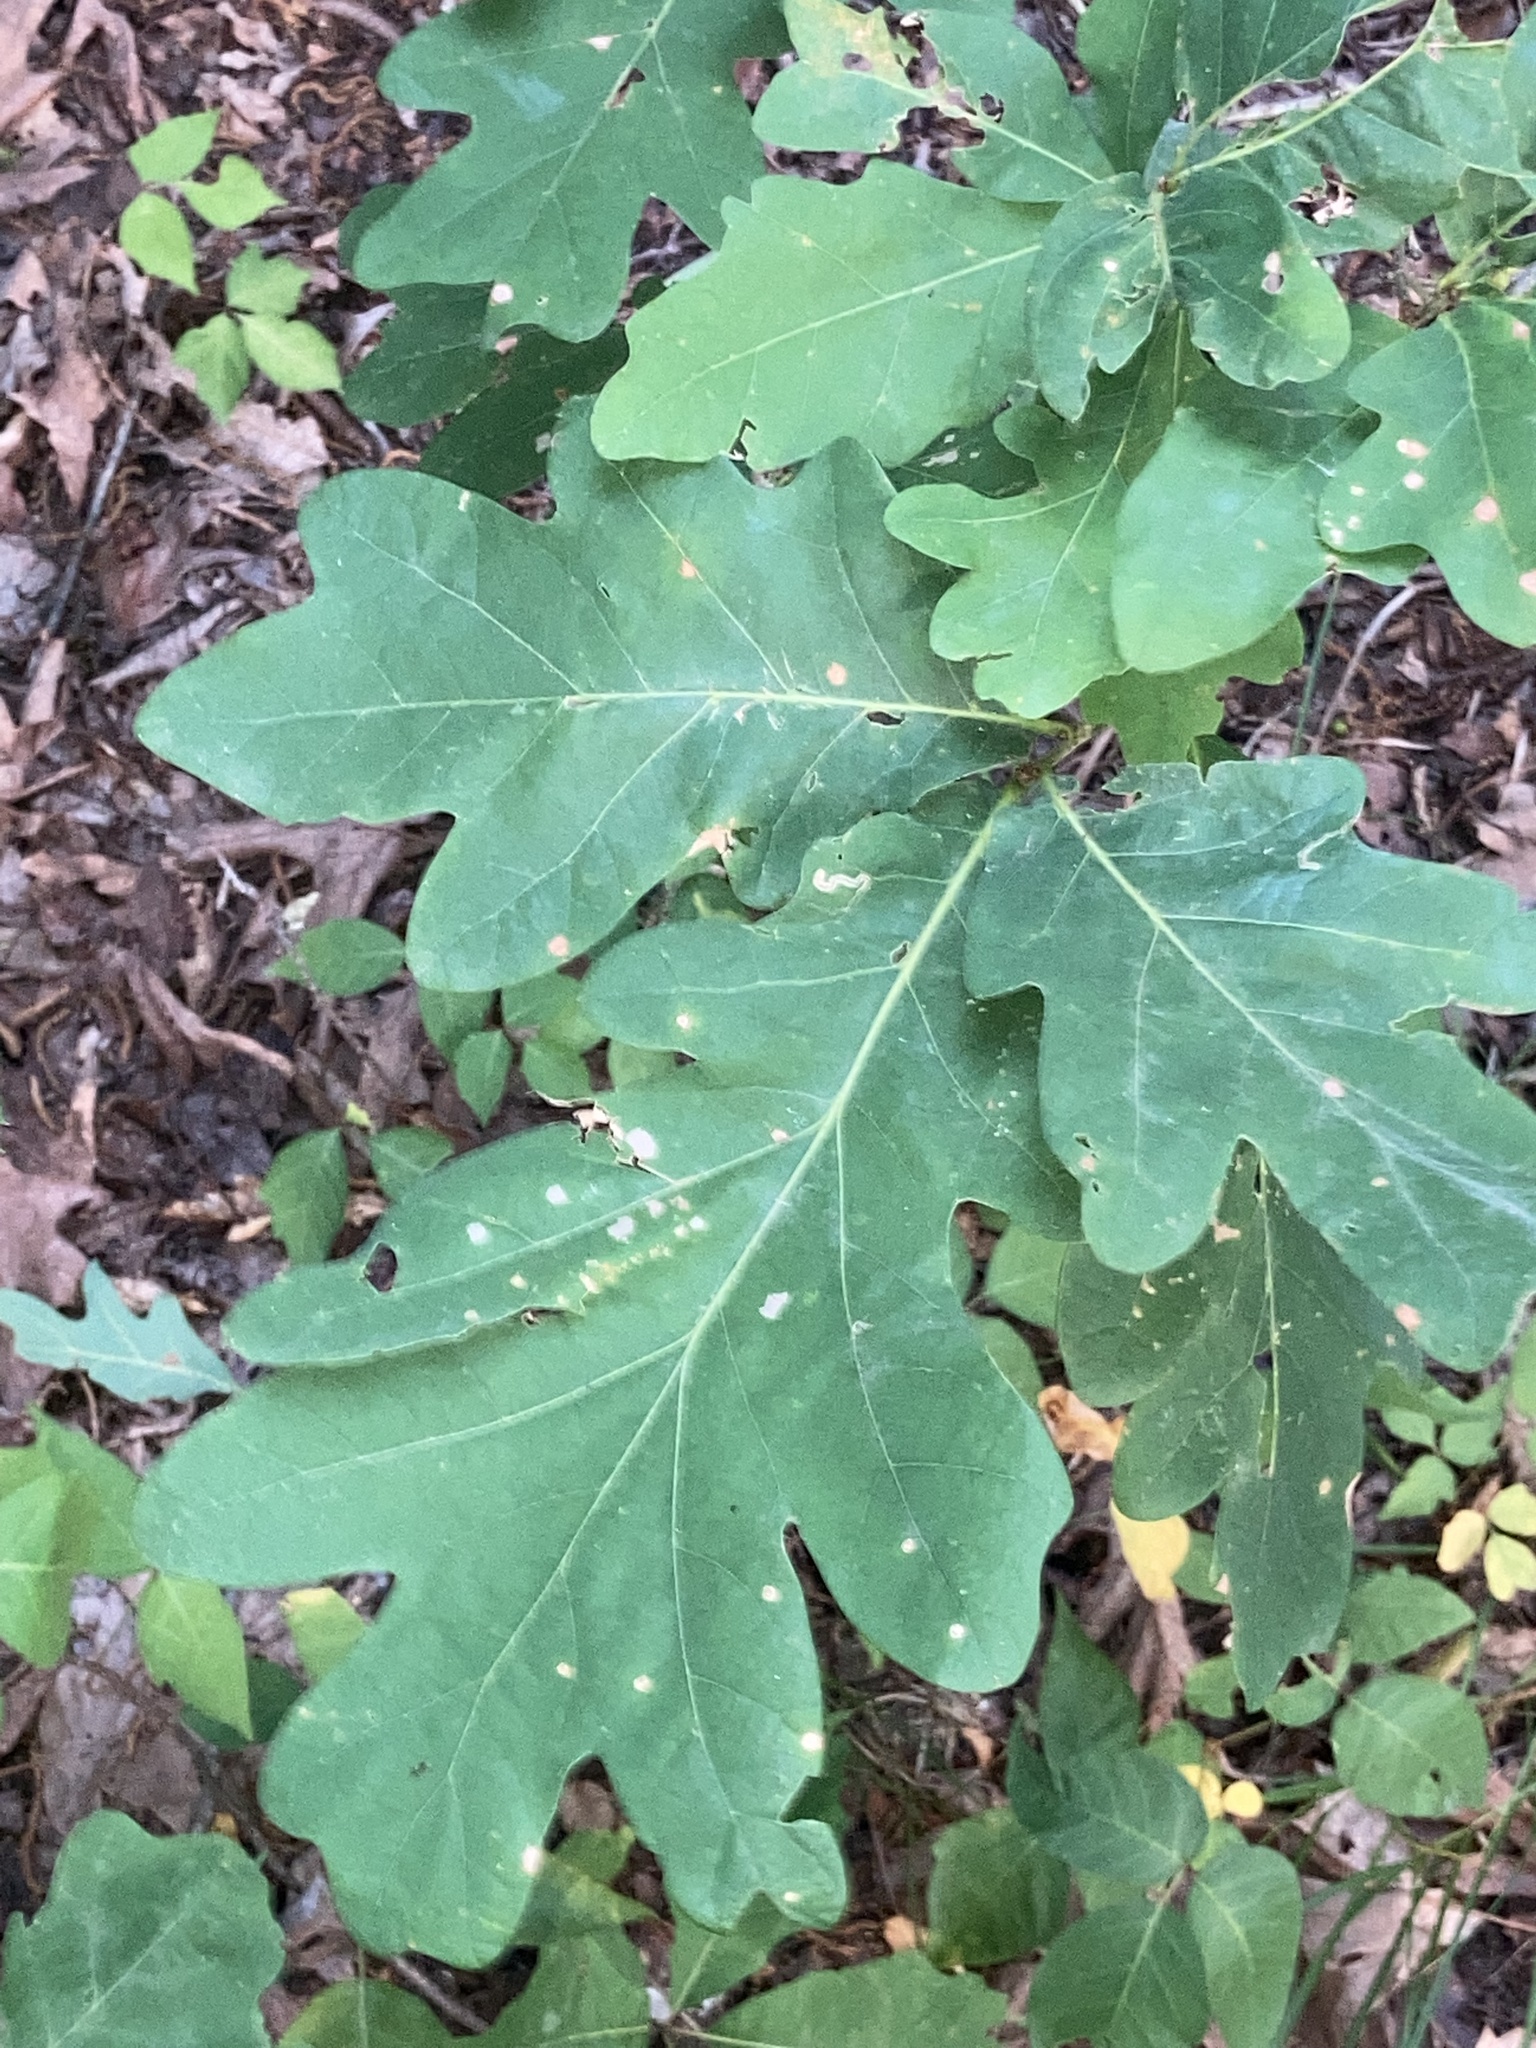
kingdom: Plantae
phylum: Tracheophyta
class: Magnoliopsida
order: Fagales
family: Fagaceae
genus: Quercus
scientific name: Quercus alba
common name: White oak
